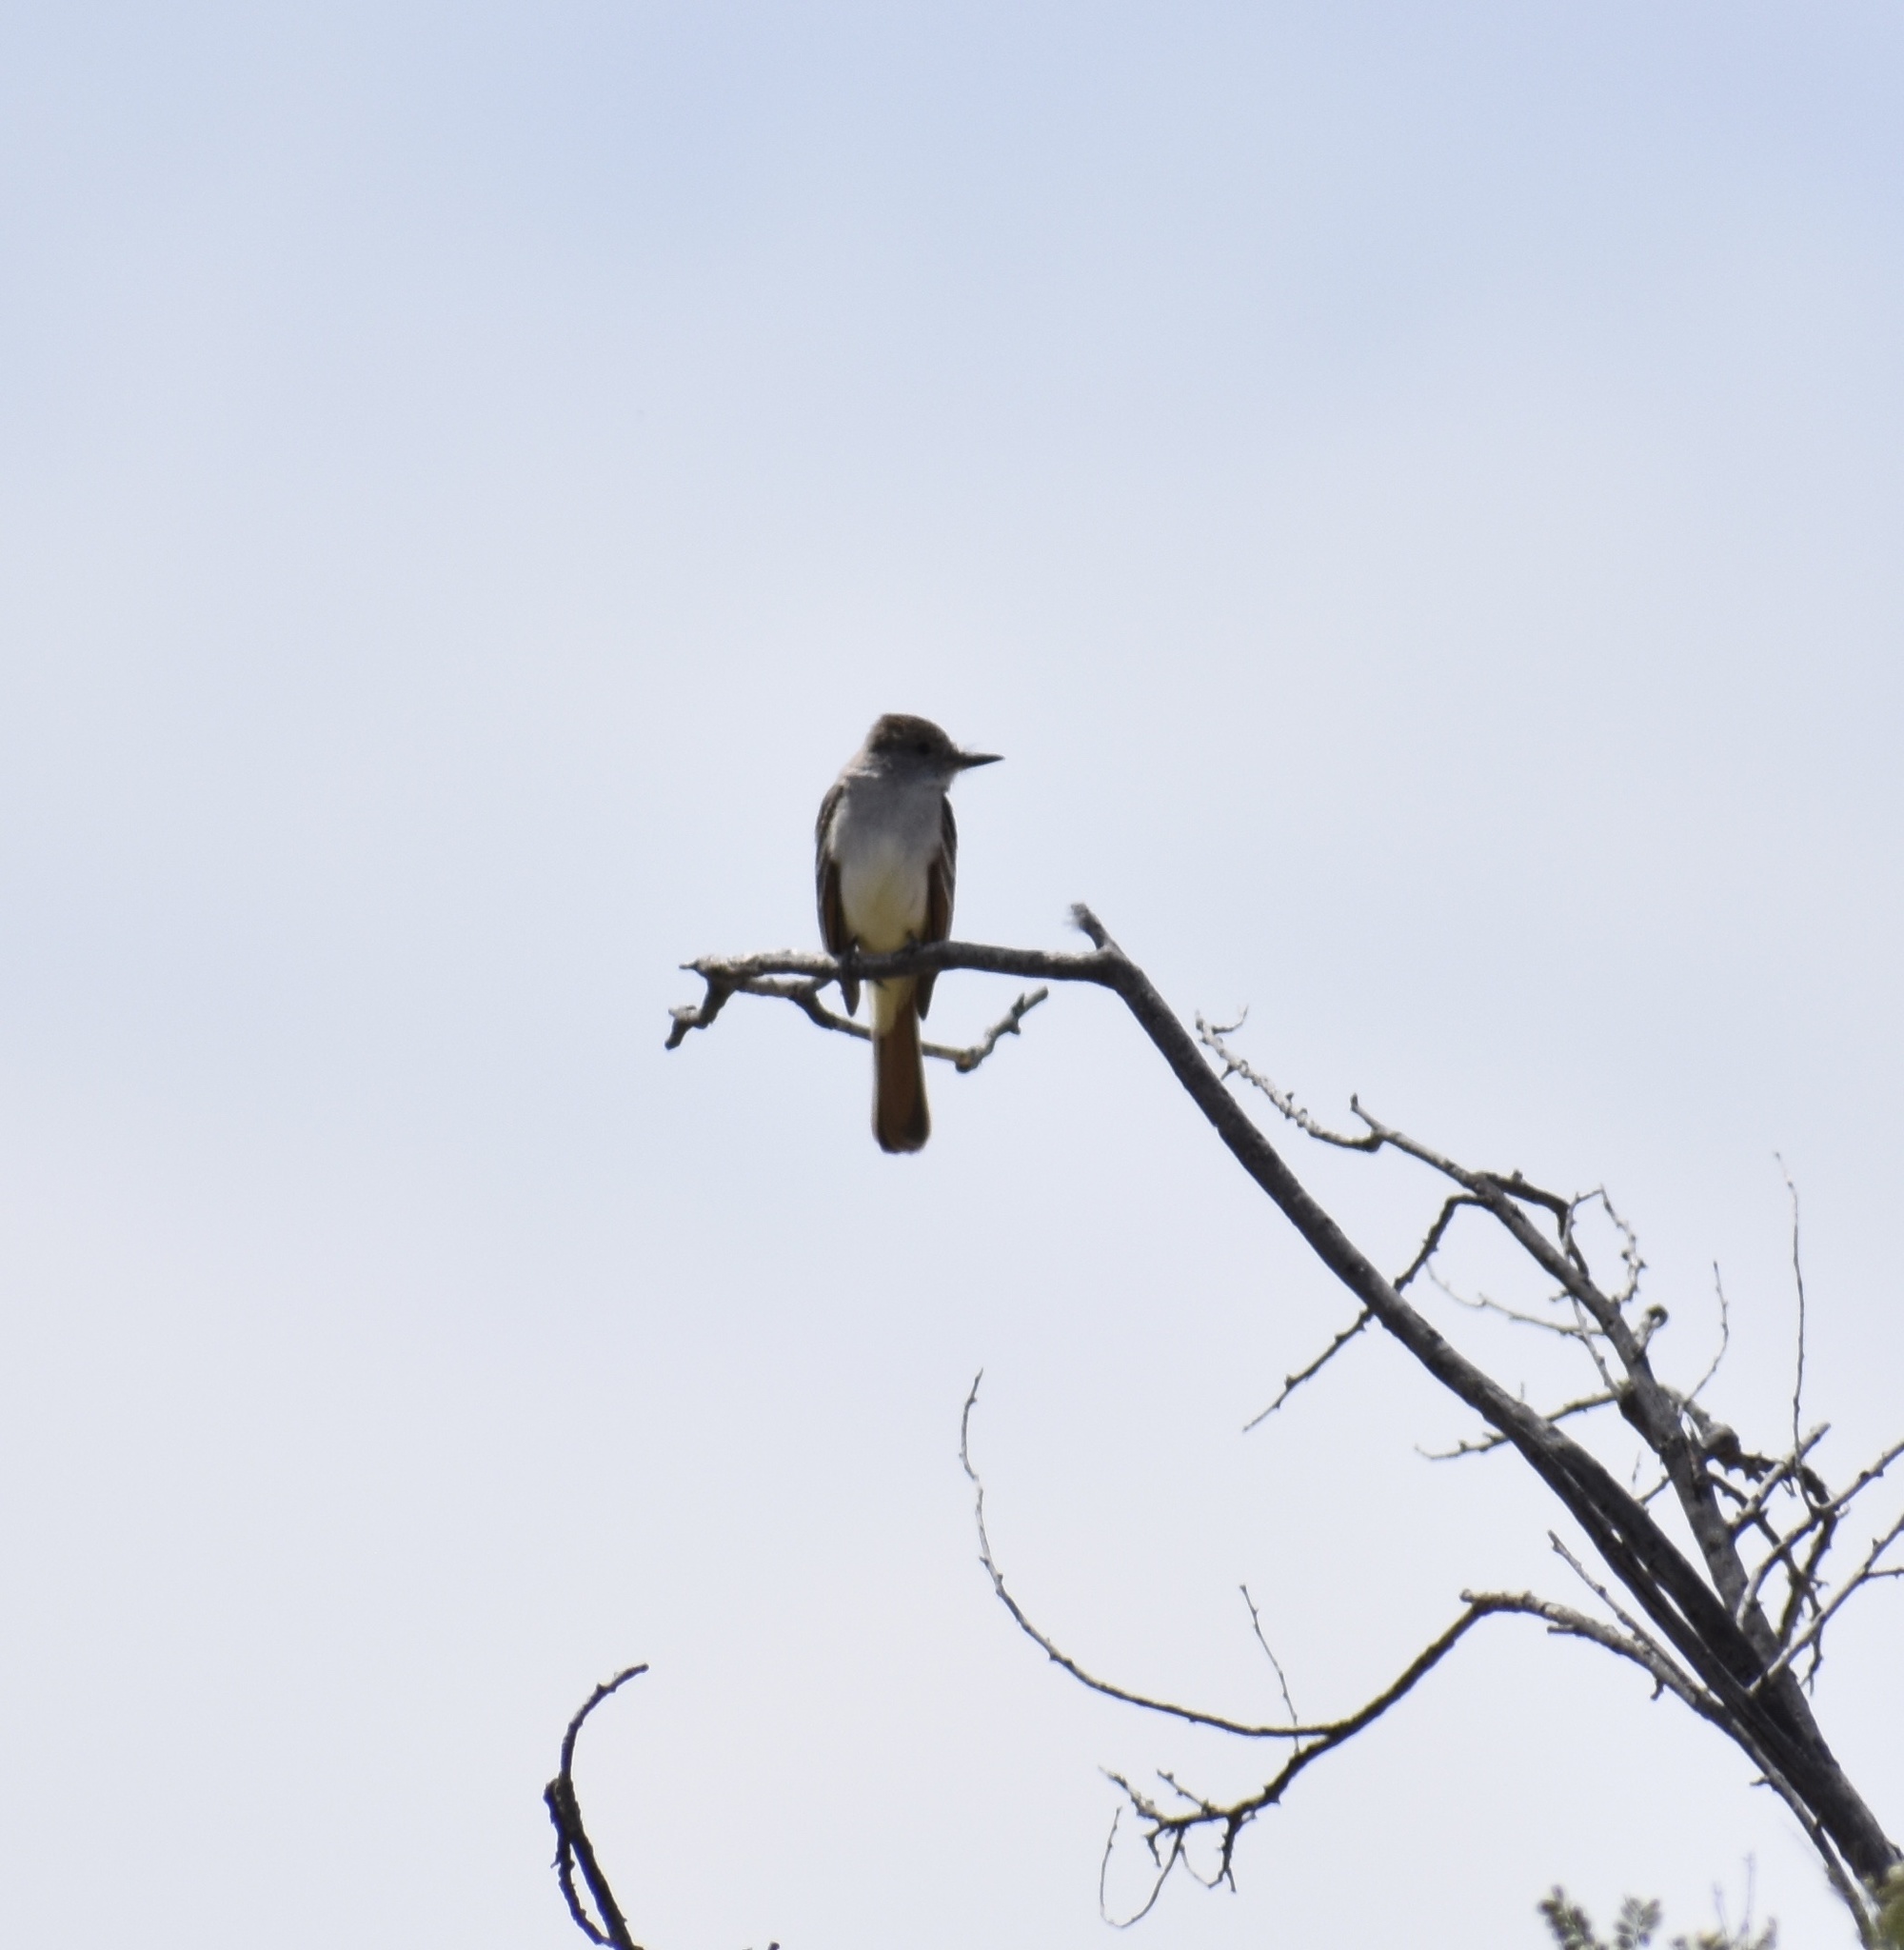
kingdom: Animalia
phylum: Chordata
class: Aves
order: Passeriformes
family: Tyrannidae
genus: Myiarchus
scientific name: Myiarchus cinerascens
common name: Ash-throated flycatcher
